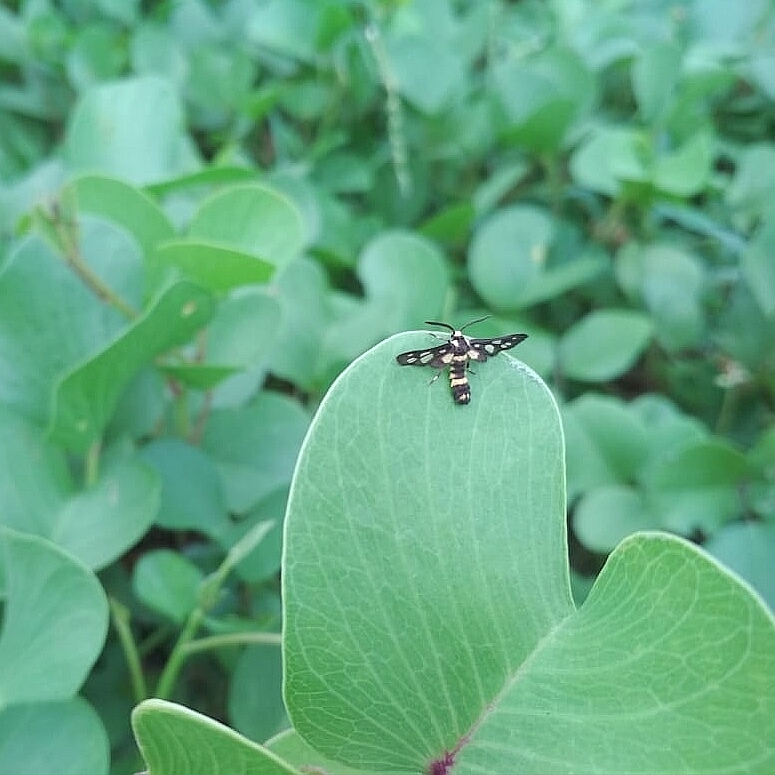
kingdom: Animalia
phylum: Arthropoda
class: Insecta
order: Lepidoptera
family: Erebidae
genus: Ceryx
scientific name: Ceryx diptera
